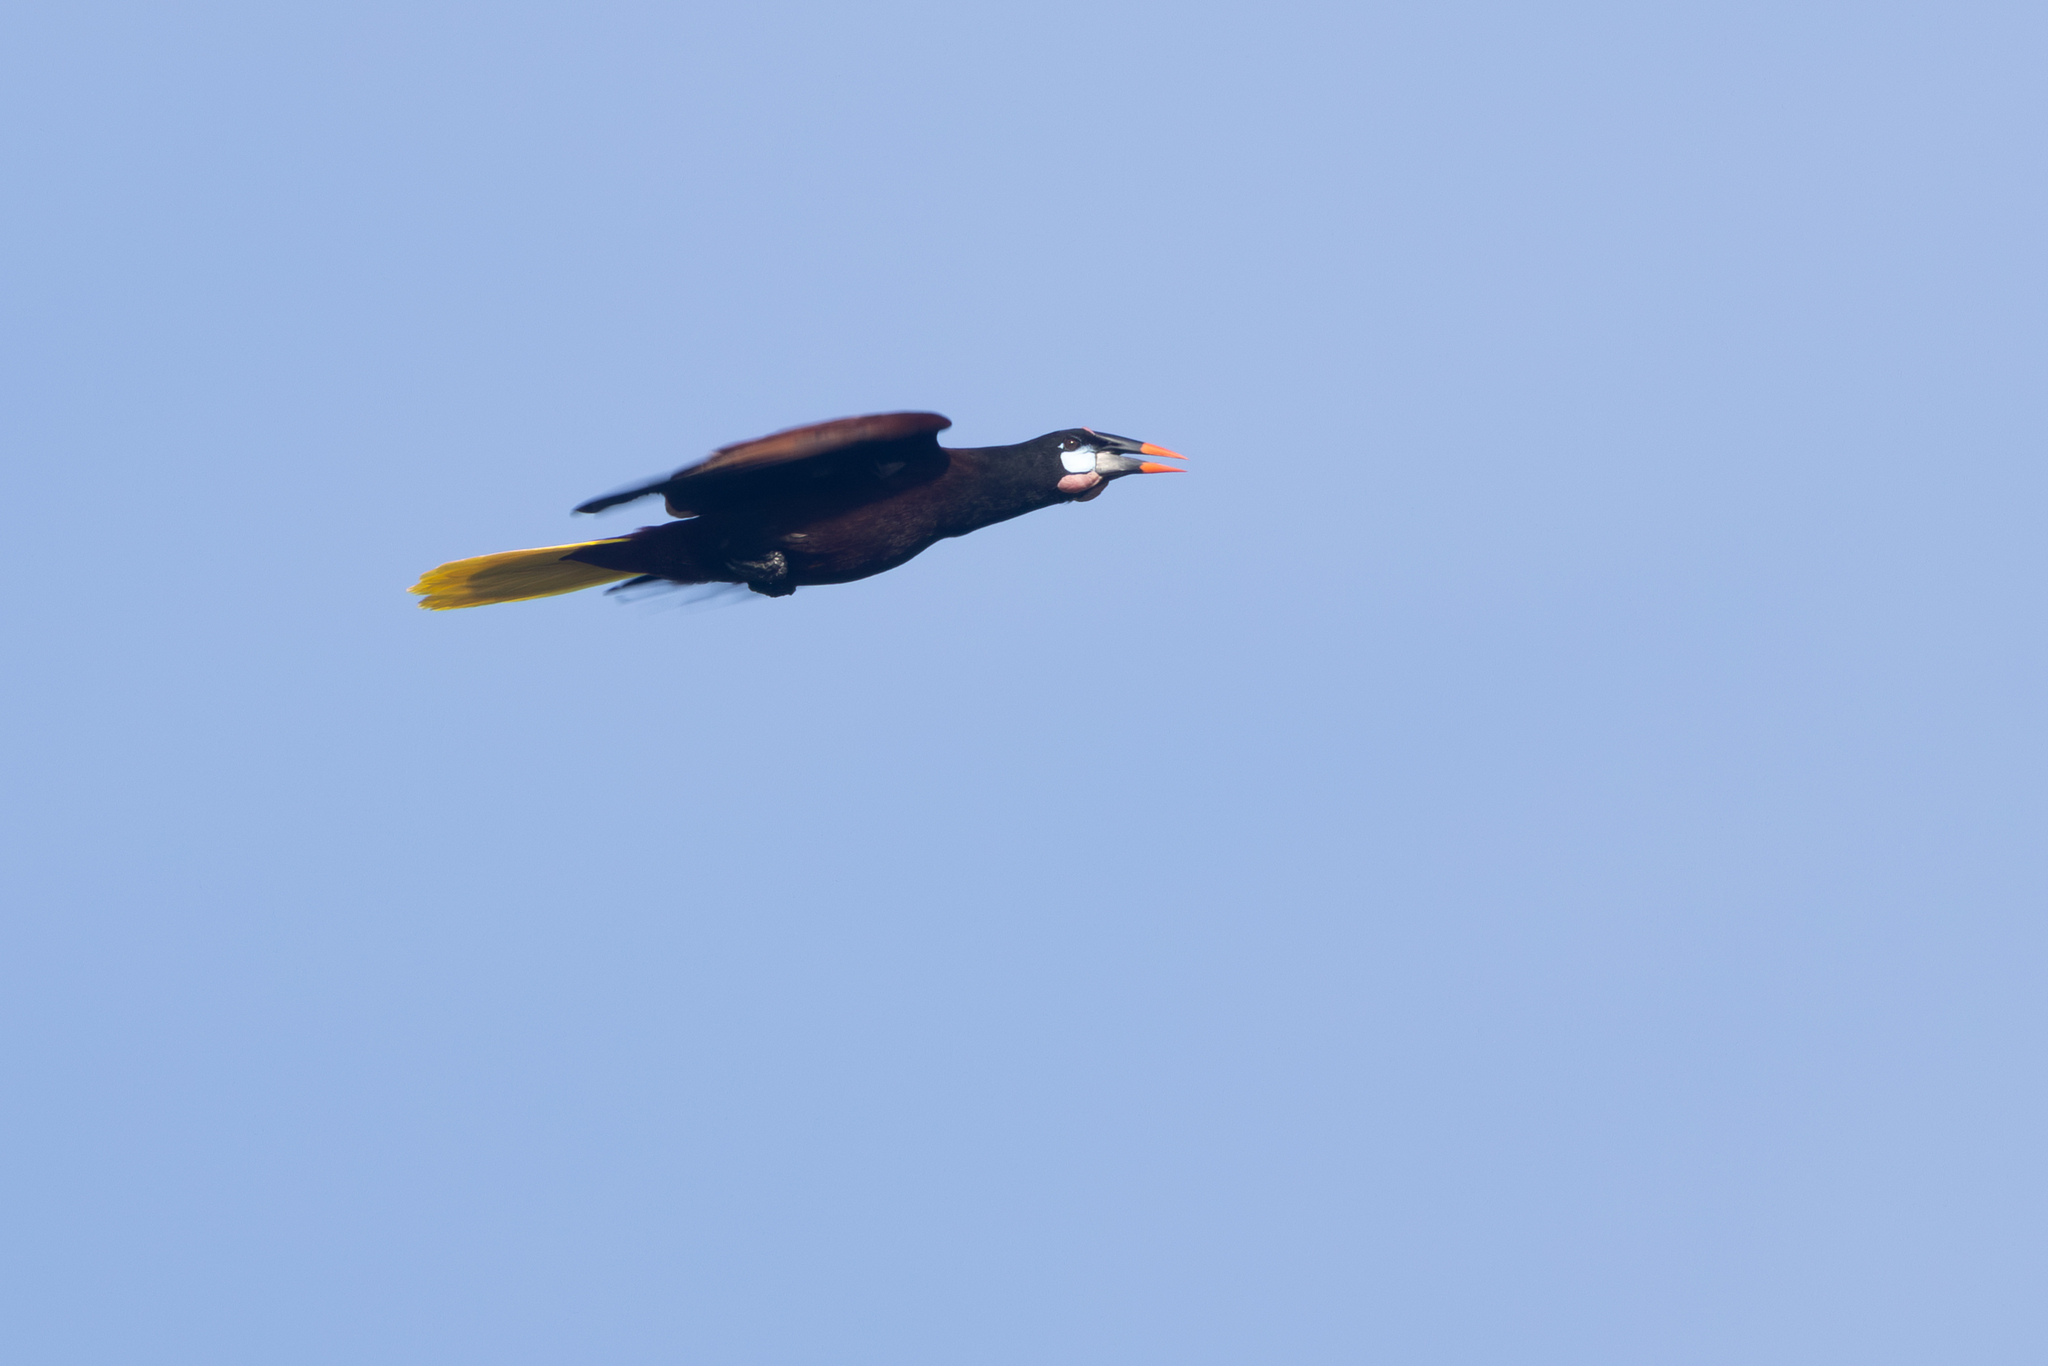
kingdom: Animalia
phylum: Chordata
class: Aves
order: Passeriformes
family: Icteridae
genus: Psarocolius
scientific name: Psarocolius montezuma
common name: Montezuma oropendola
